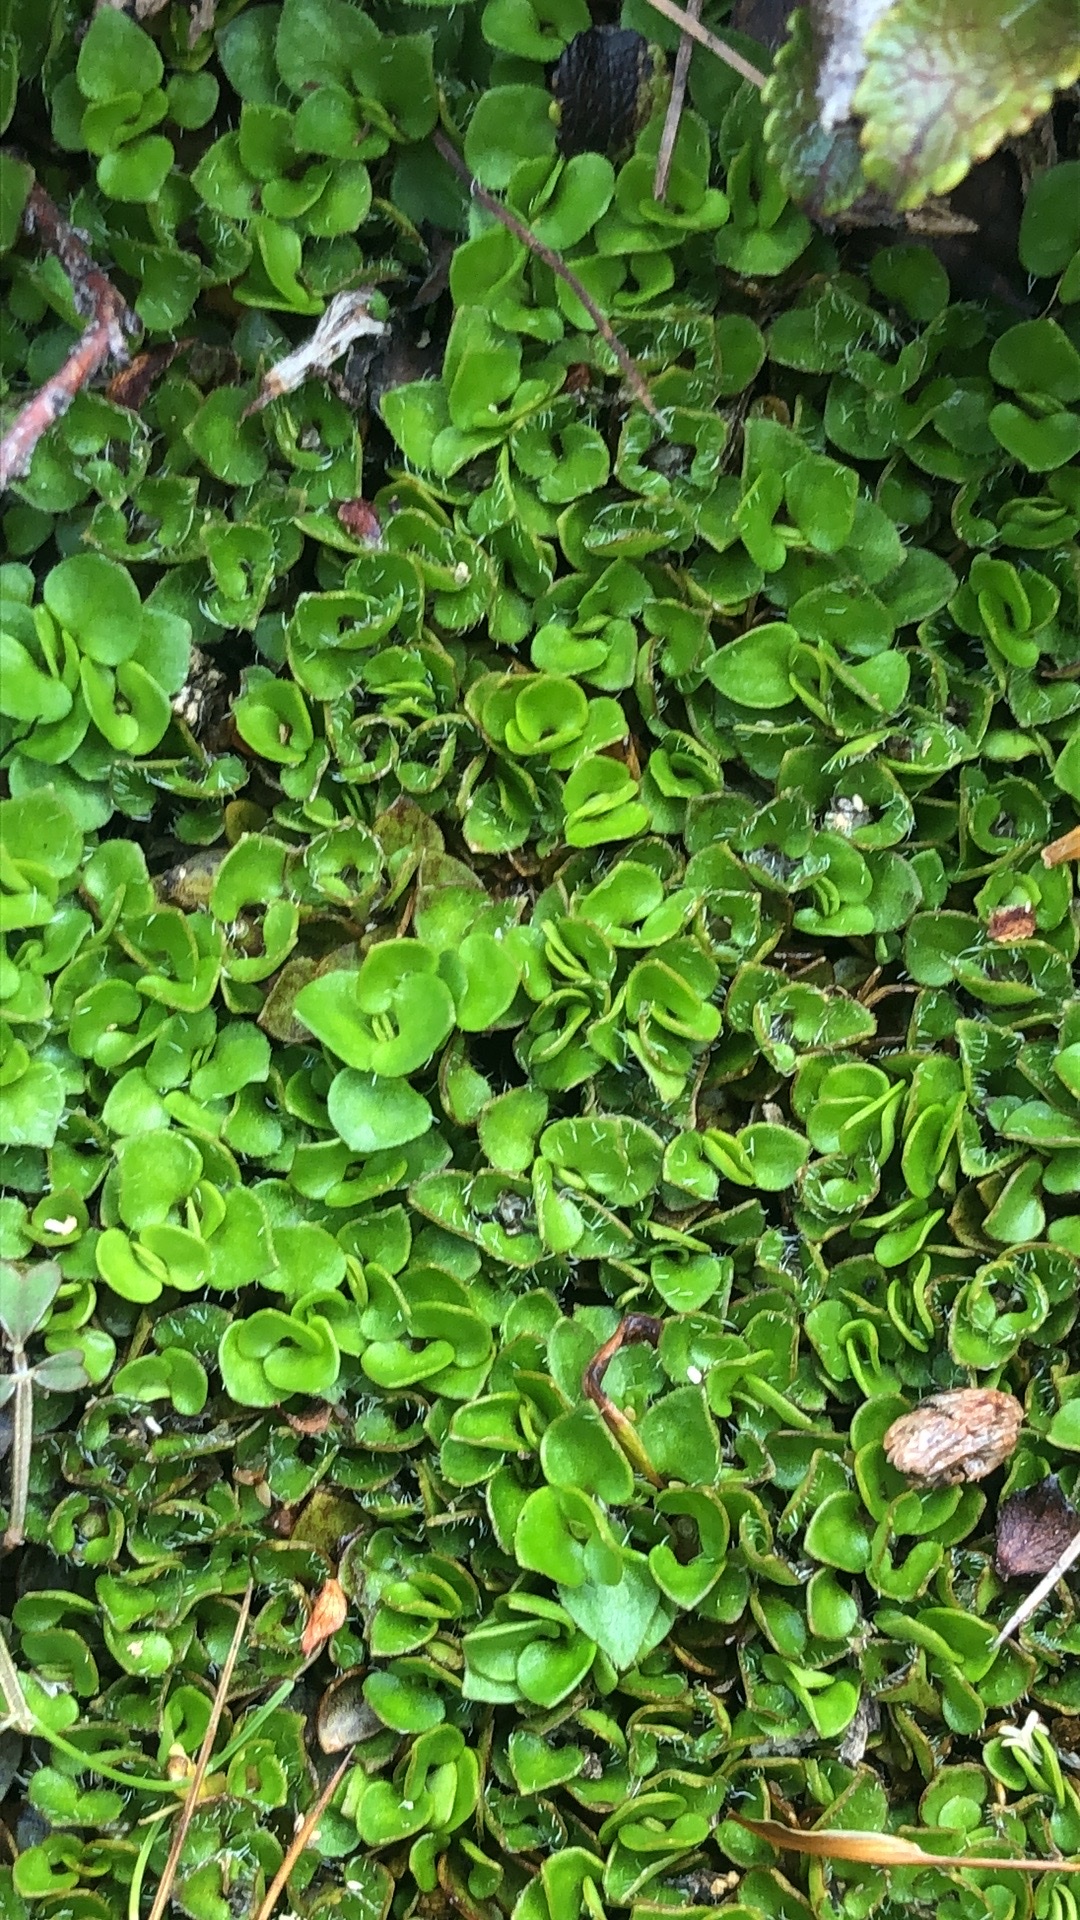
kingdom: Plantae
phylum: Tracheophyta
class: Magnoliopsida
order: Gentianales
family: Rubiaceae
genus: Nertera
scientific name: Nertera ciliata
